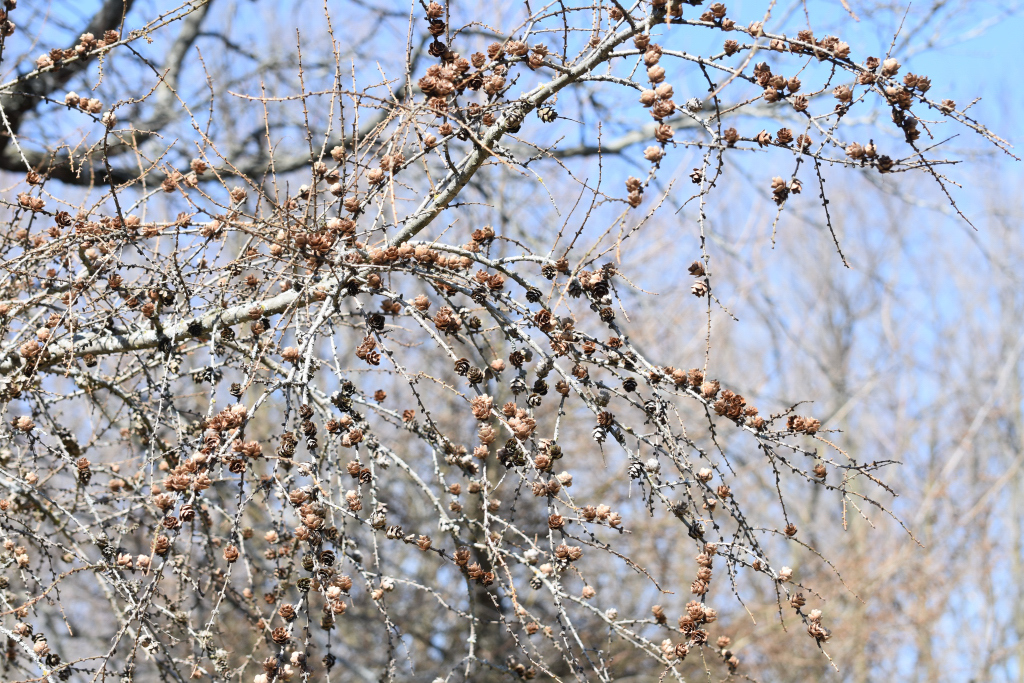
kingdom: Plantae
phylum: Tracheophyta
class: Pinopsida
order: Pinales
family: Pinaceae
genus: Larix
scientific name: Larix laricina
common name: American larch
